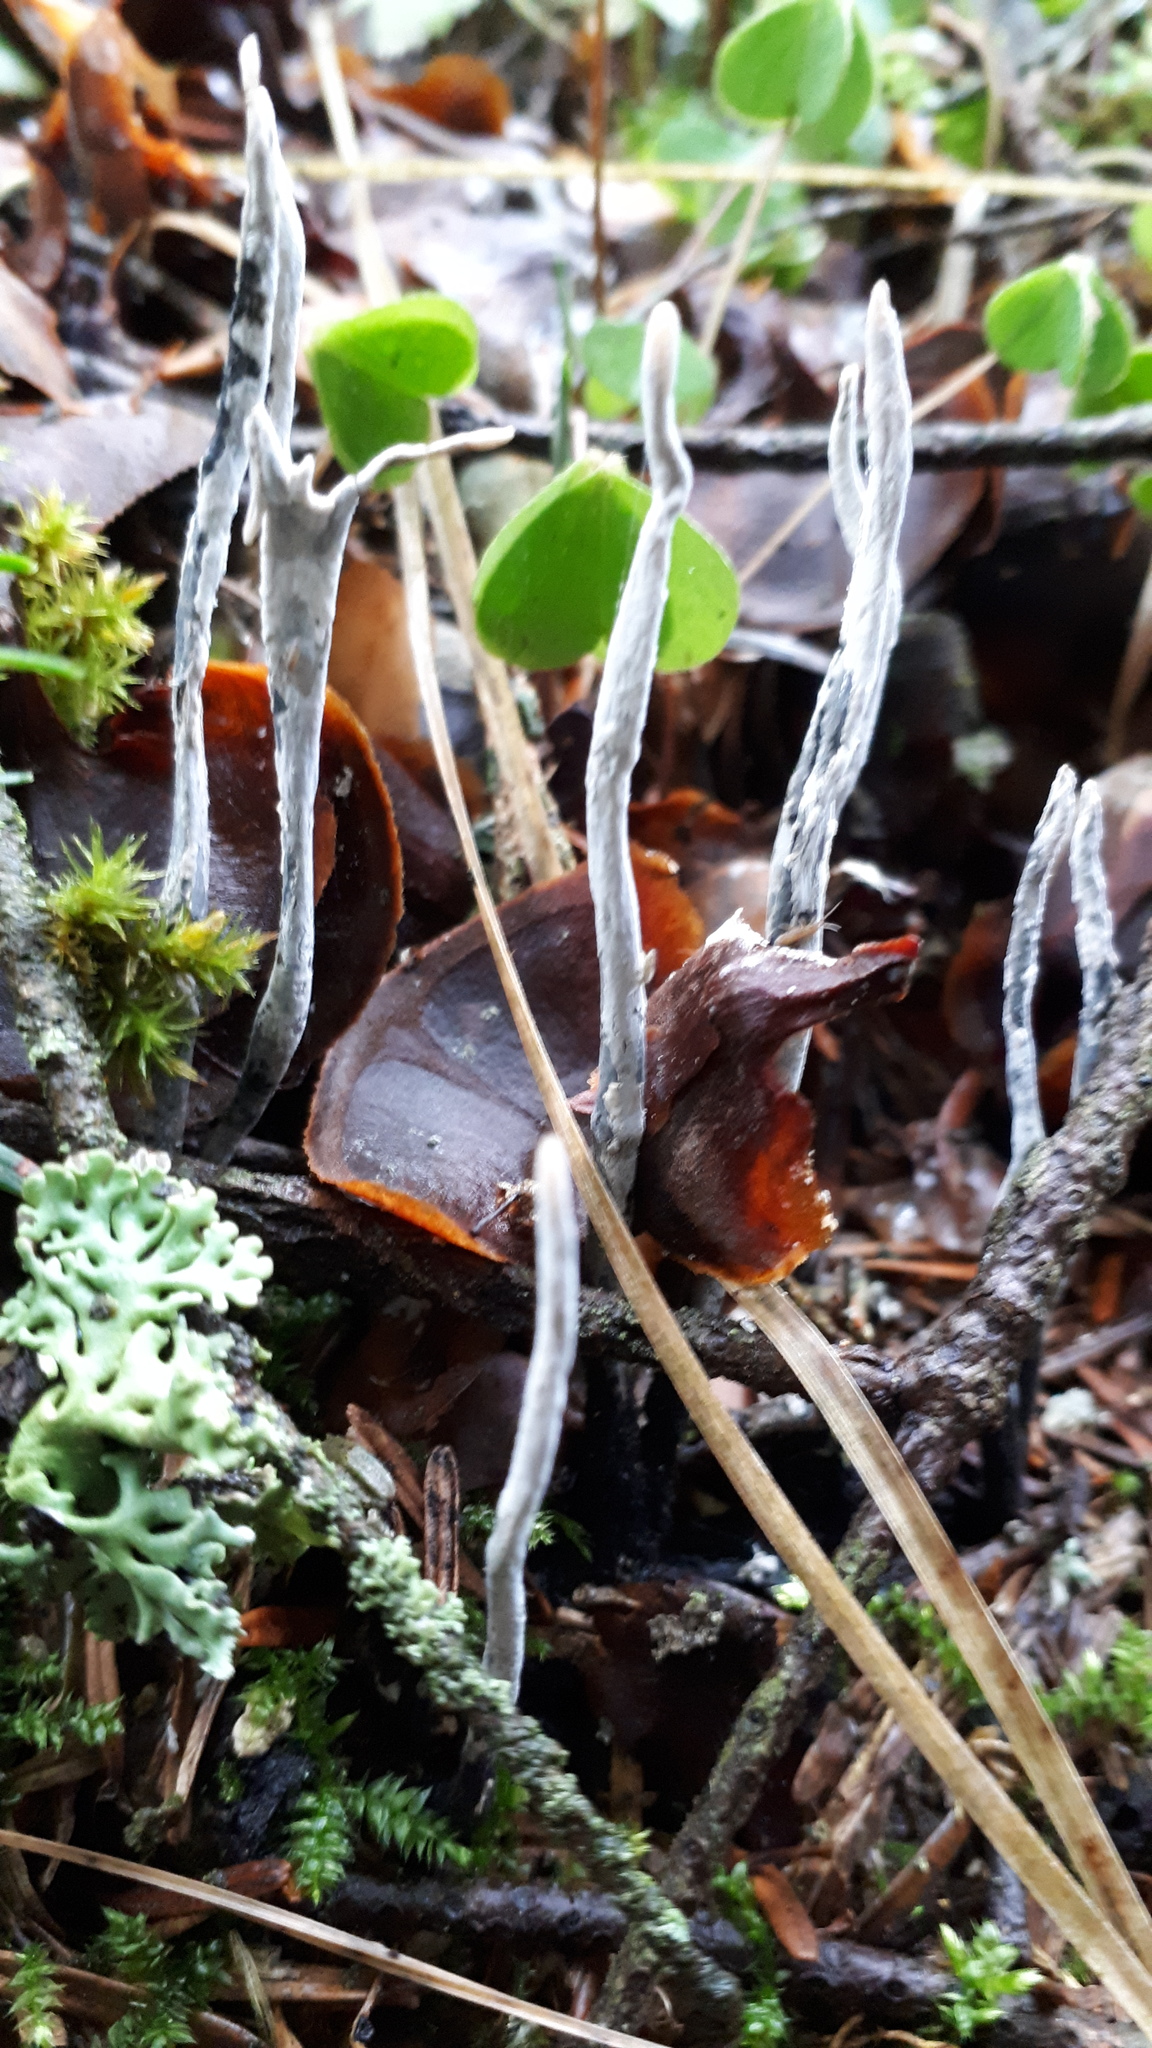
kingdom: Fungi
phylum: Ascomycota
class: Sordariomycetes
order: Xylariales
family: Xylariaceae
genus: Xylaria
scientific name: Xylaria hypoxylon
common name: Candle-snuff fungus
